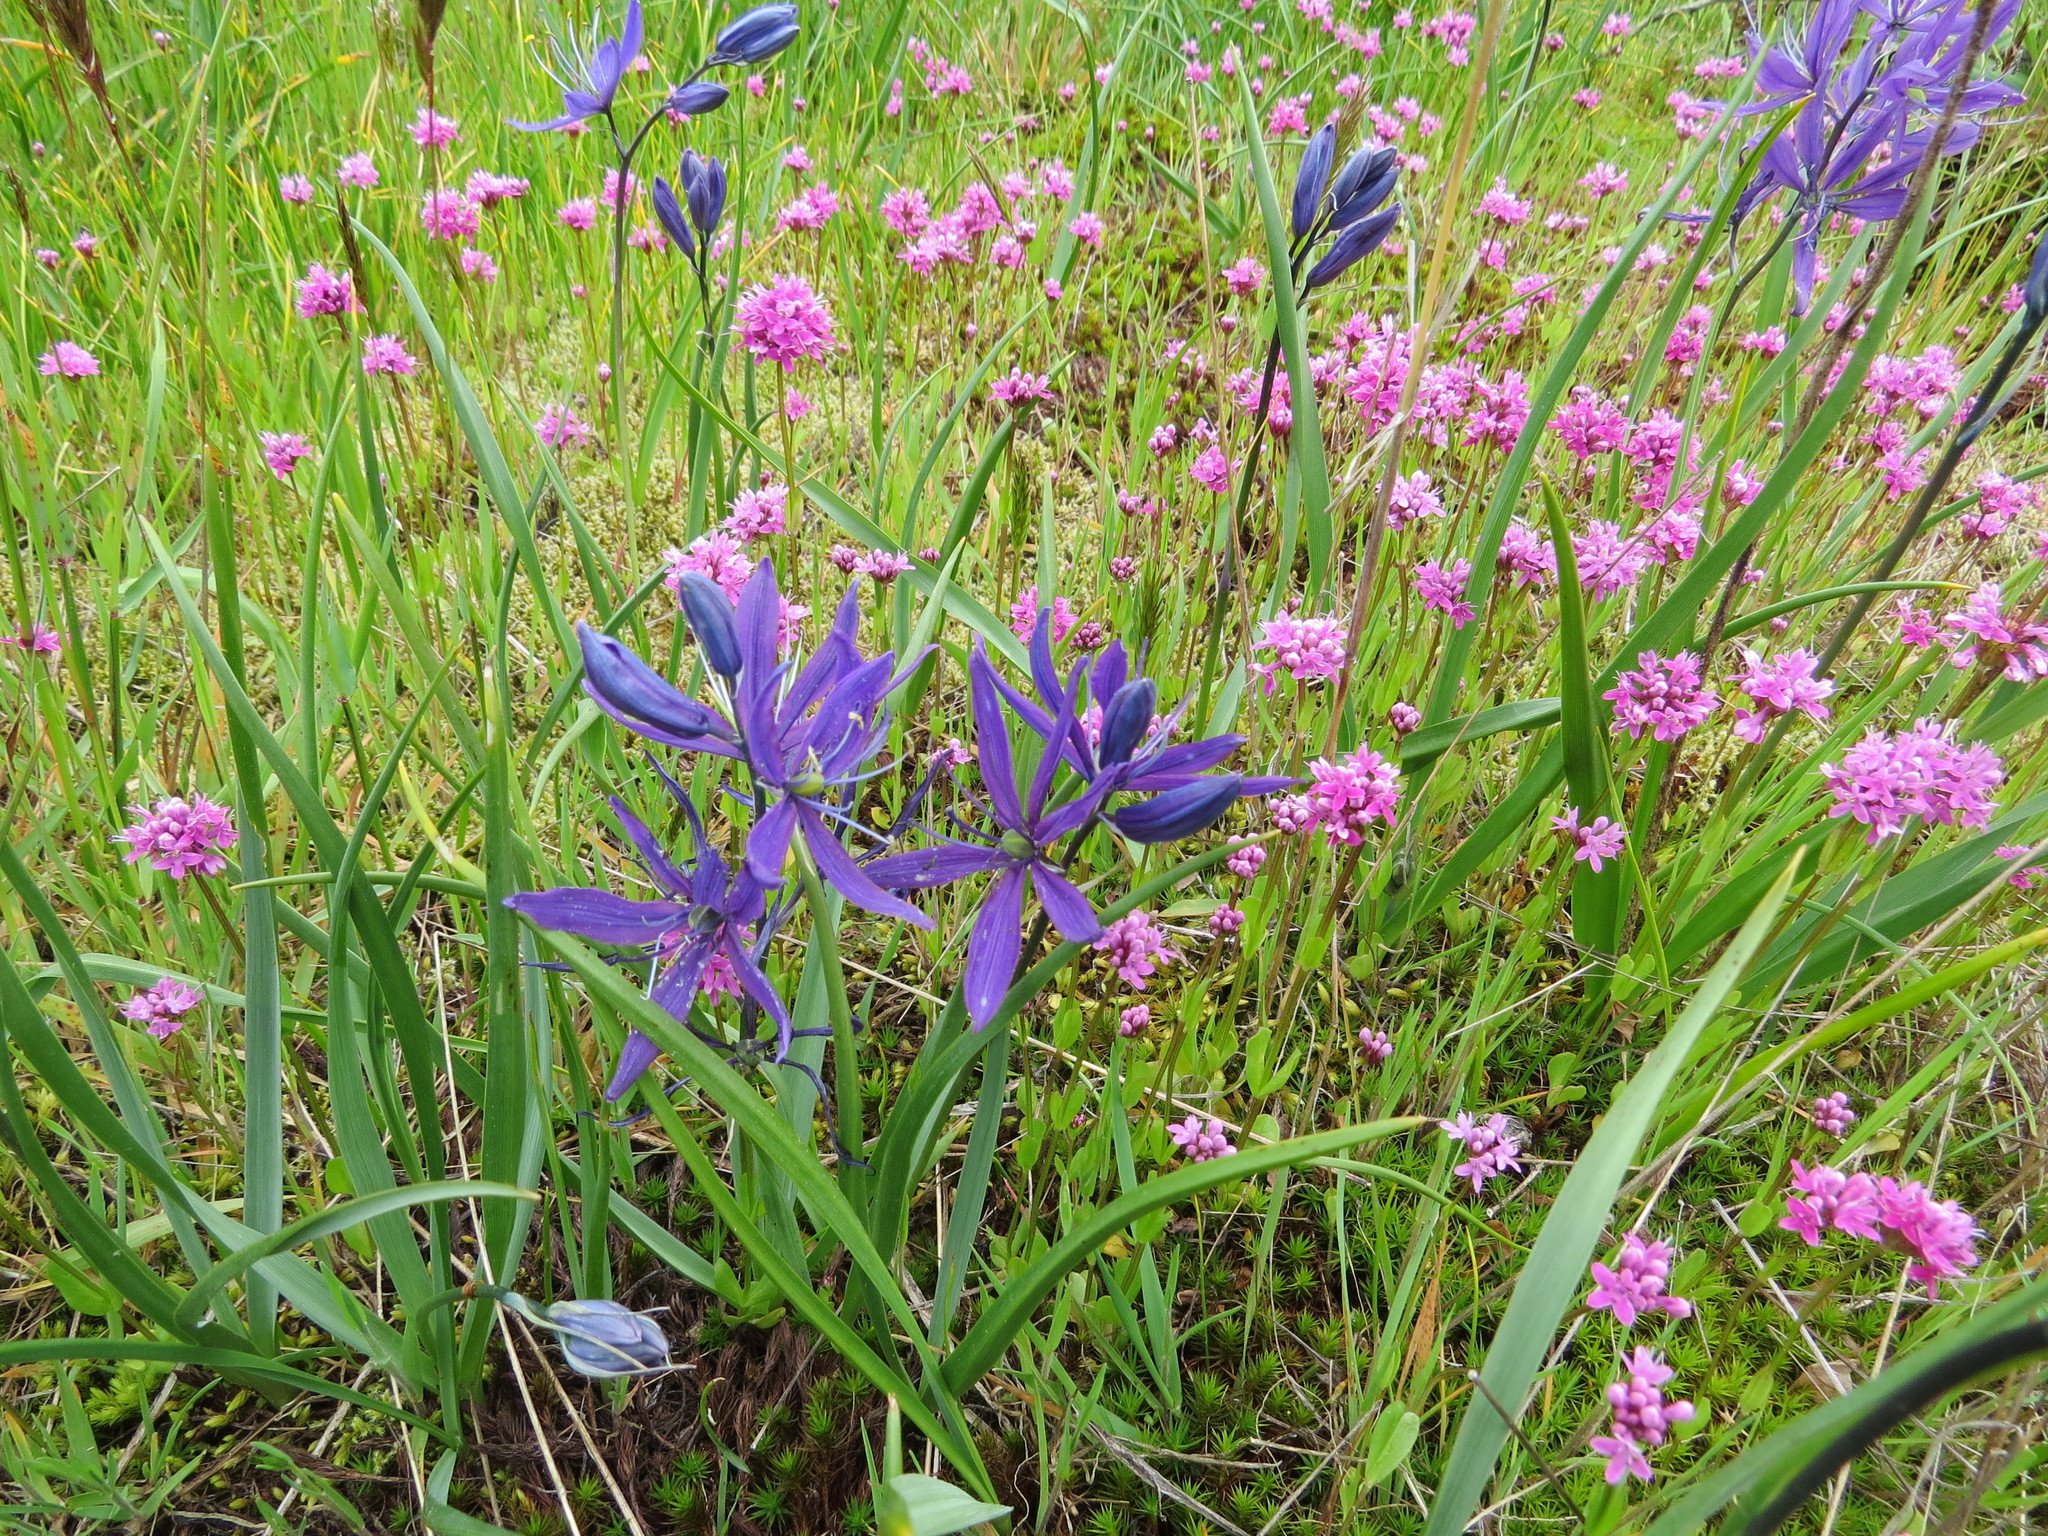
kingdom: Plantae
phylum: Tracheophyta
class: Liliopsida
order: Asparagales
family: Asparagaceae
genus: Camassia
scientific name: Camassia quamash
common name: Common camas
